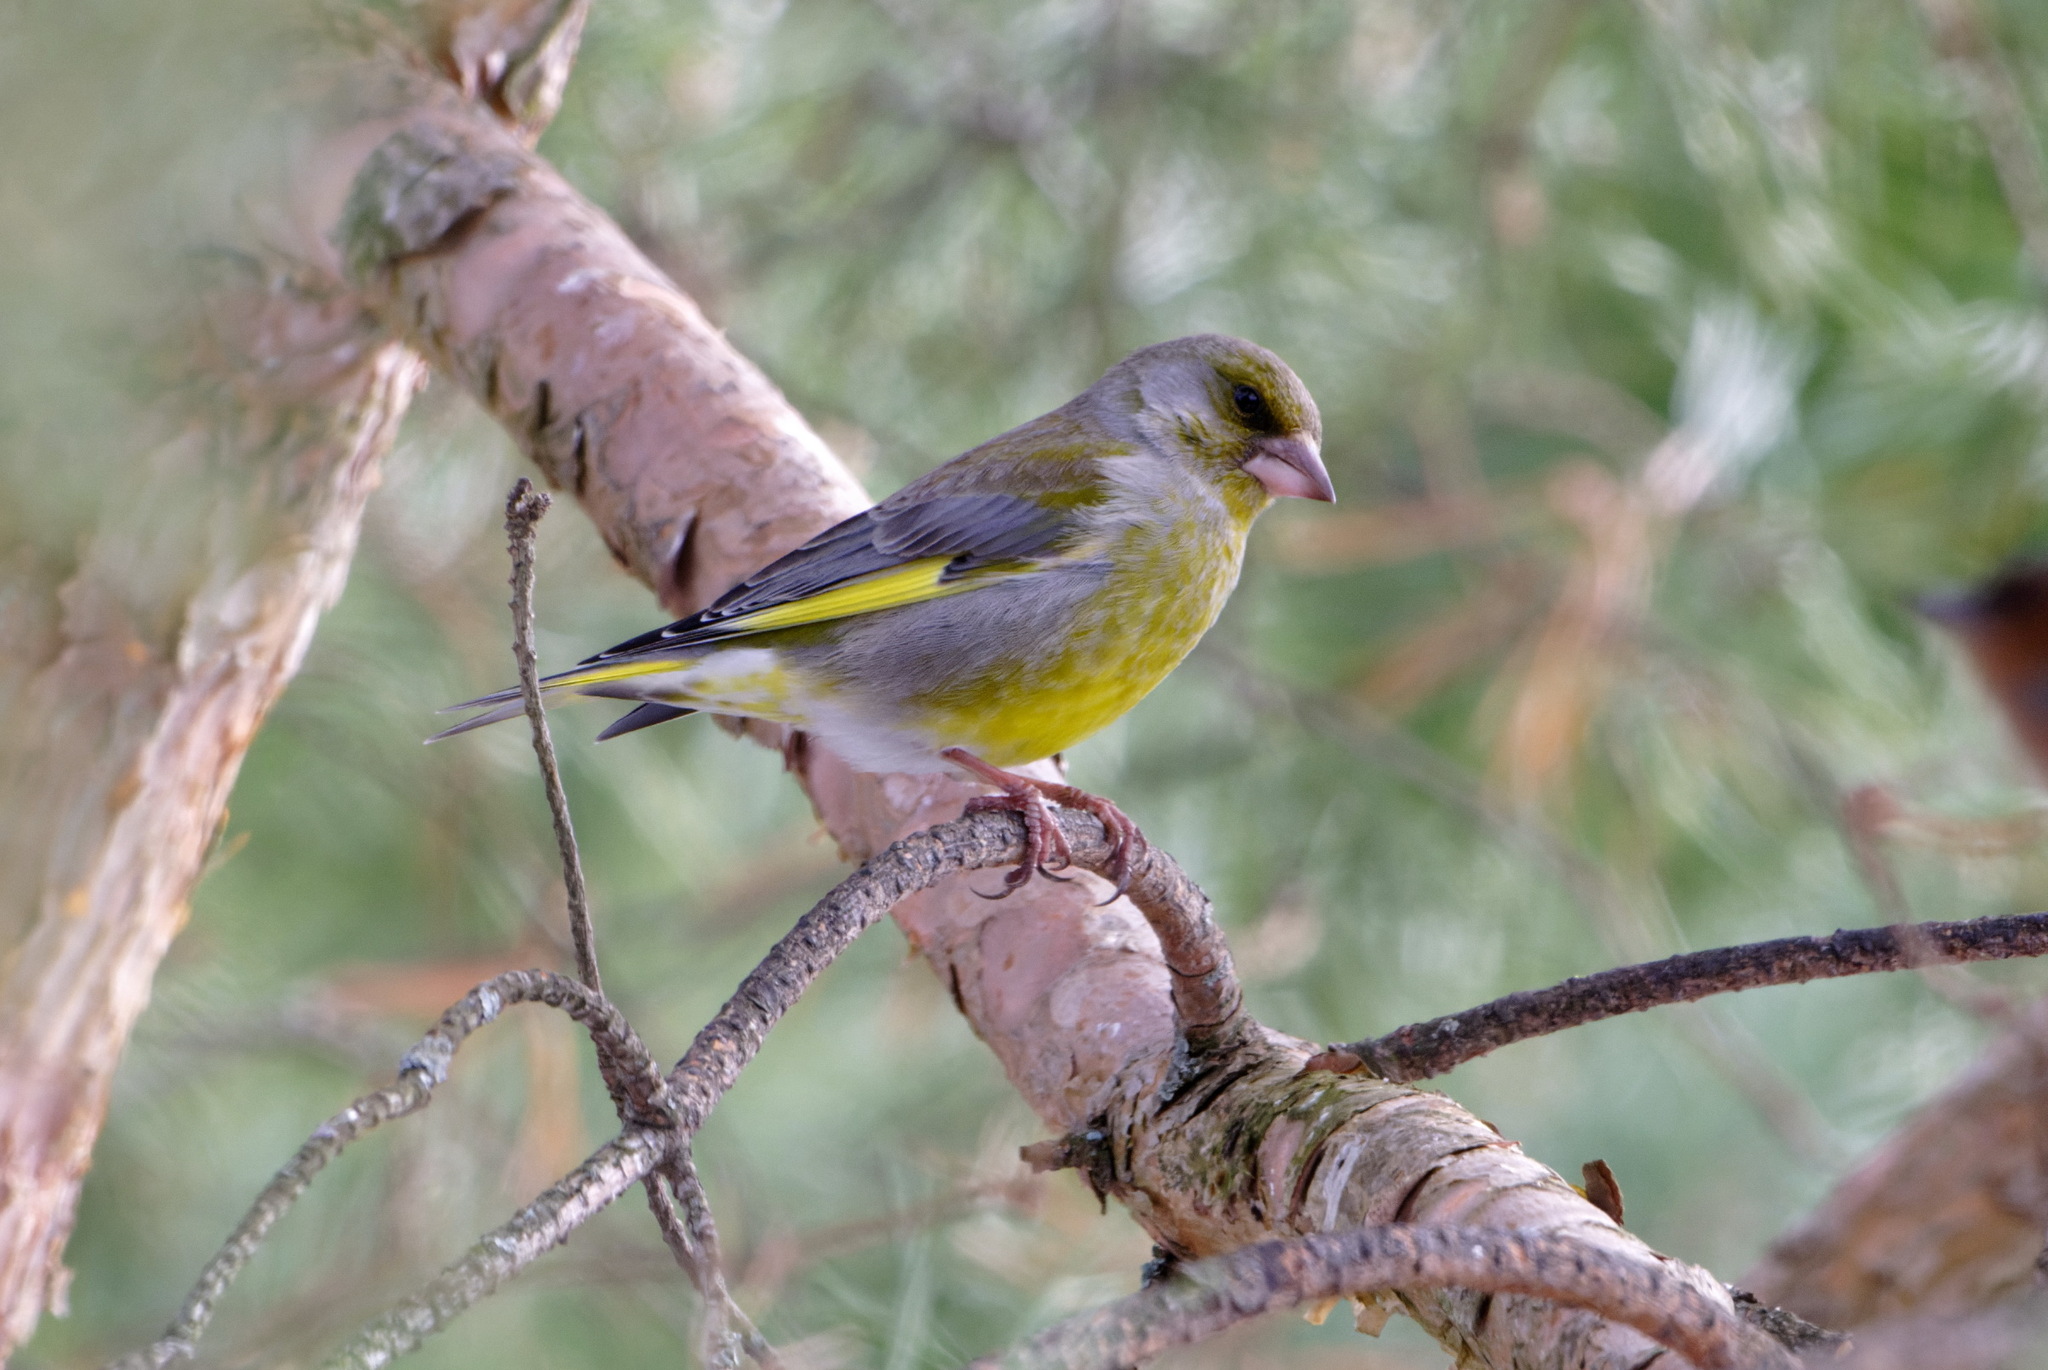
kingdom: Plantae
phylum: Tracheophyta
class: Liliopsida
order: Poales
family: Poaceae
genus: Chloris
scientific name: Chloris chloris
